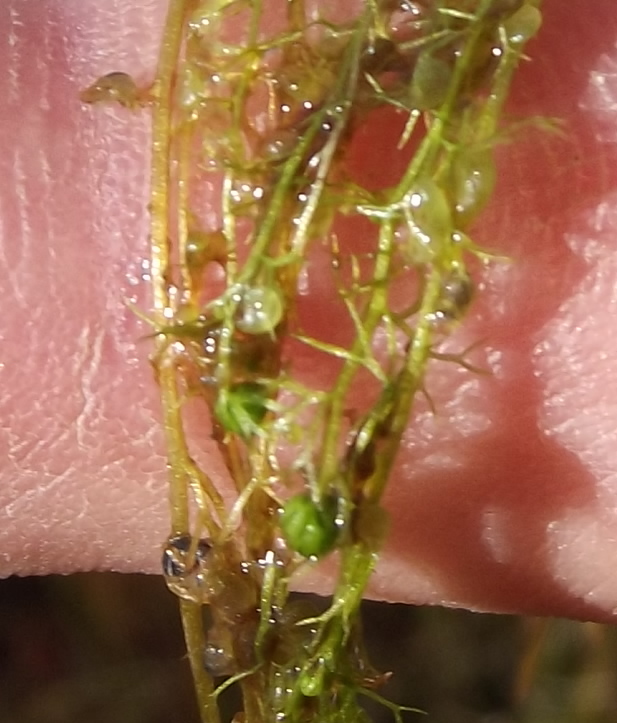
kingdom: Plantae
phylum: Tracheophyta
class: Magnoliopsida
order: Lamiales
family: Lentibulariaceae
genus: Utricularia
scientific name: Utricularia minor
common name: Lesser bladderwort
